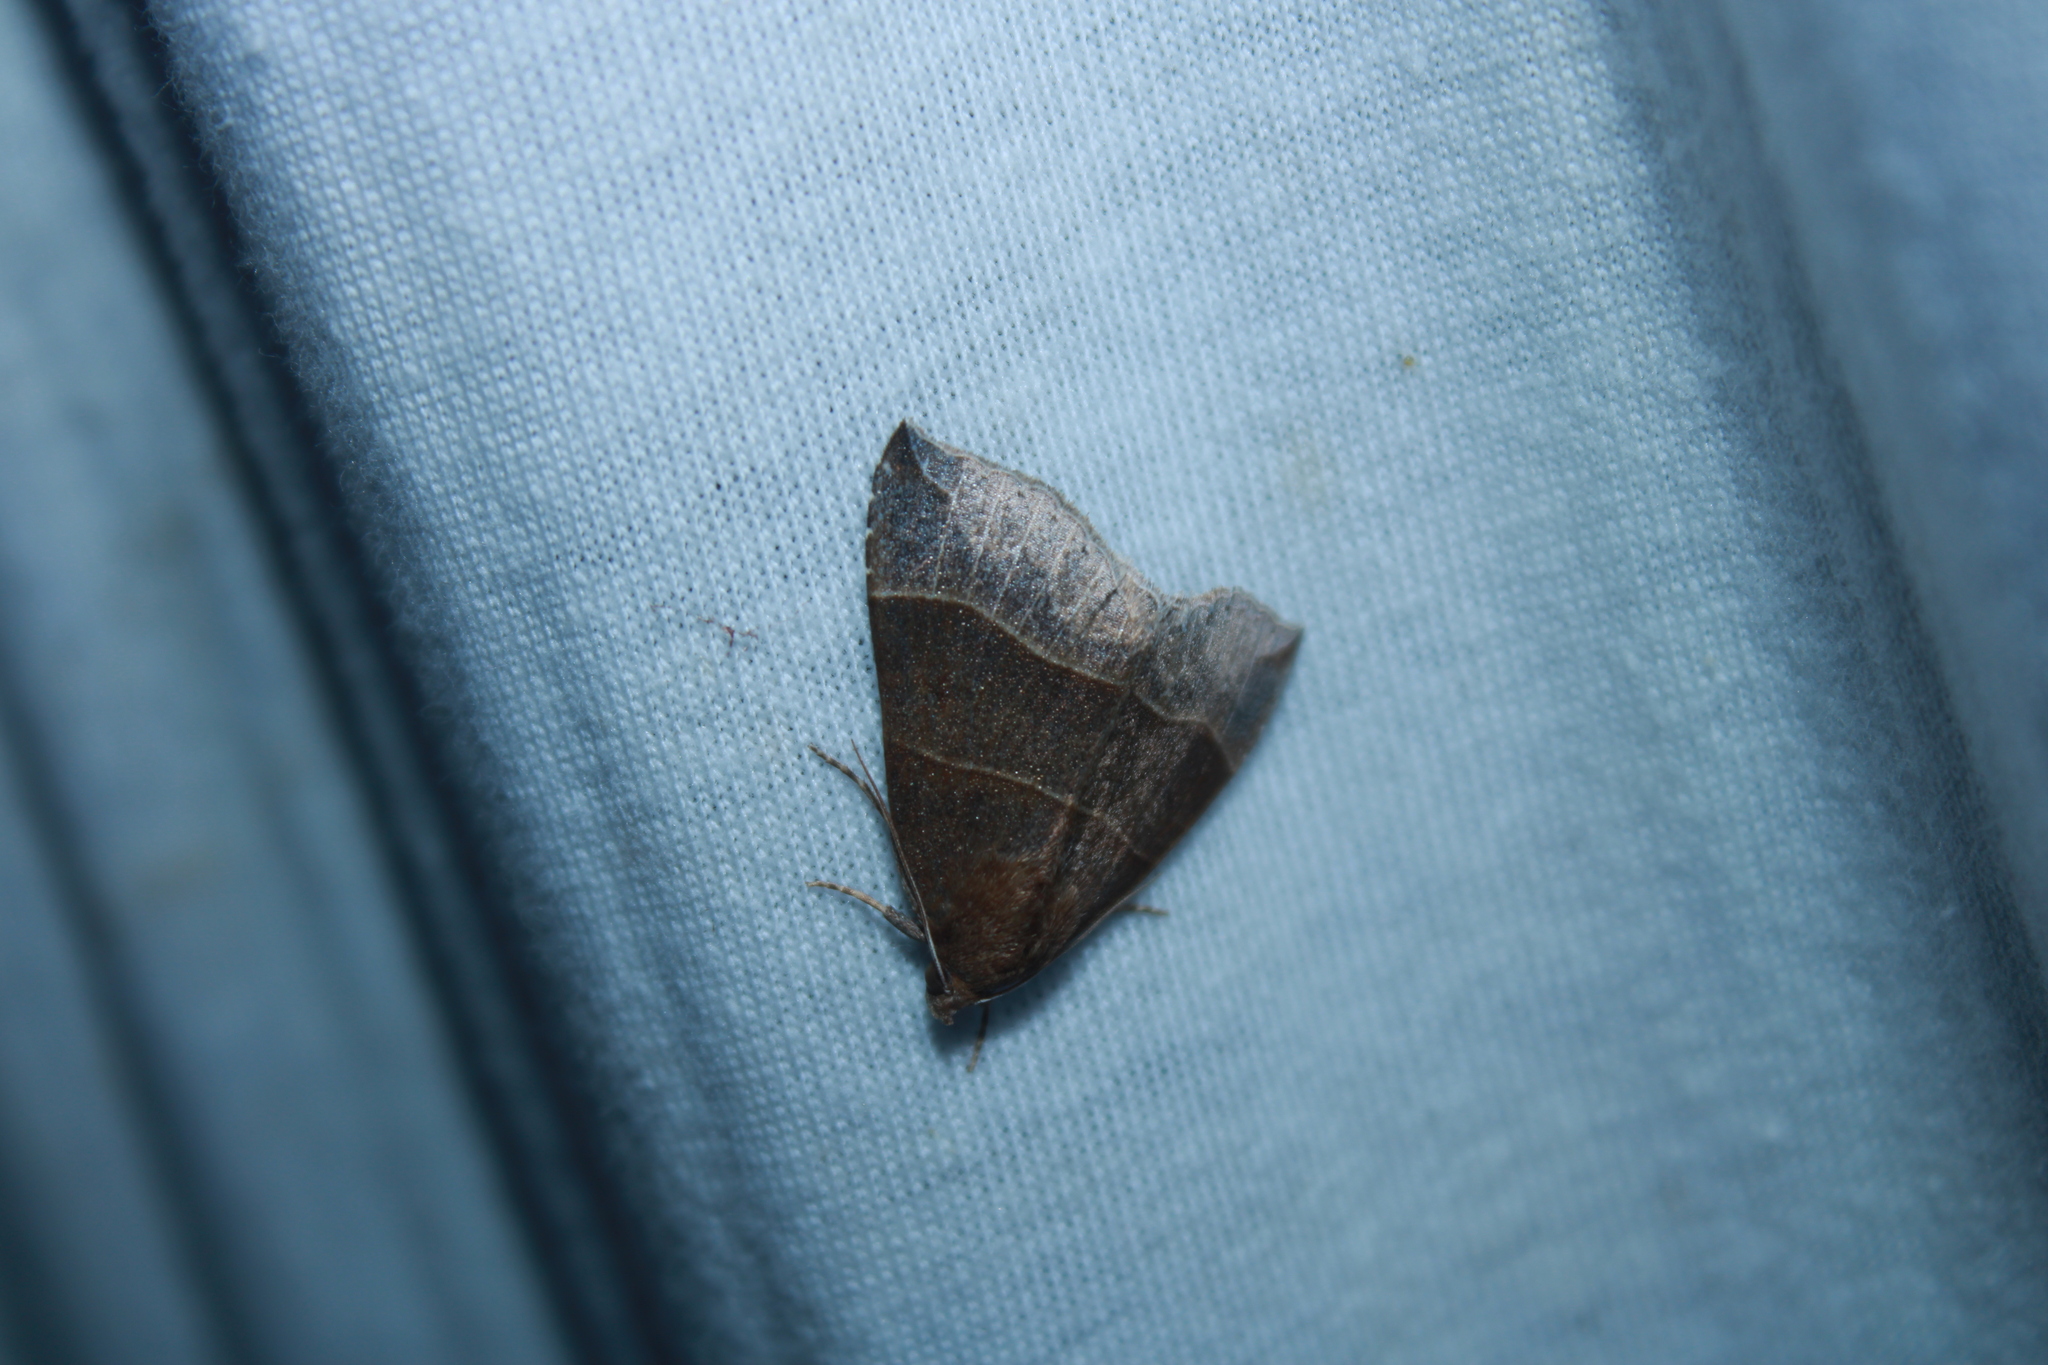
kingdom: Animalia
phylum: Arthropoda
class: Insecta
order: Lepidoptera
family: Erebidae
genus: Parallelia
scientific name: Parallelia bistriaris
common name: Maple looper moth
